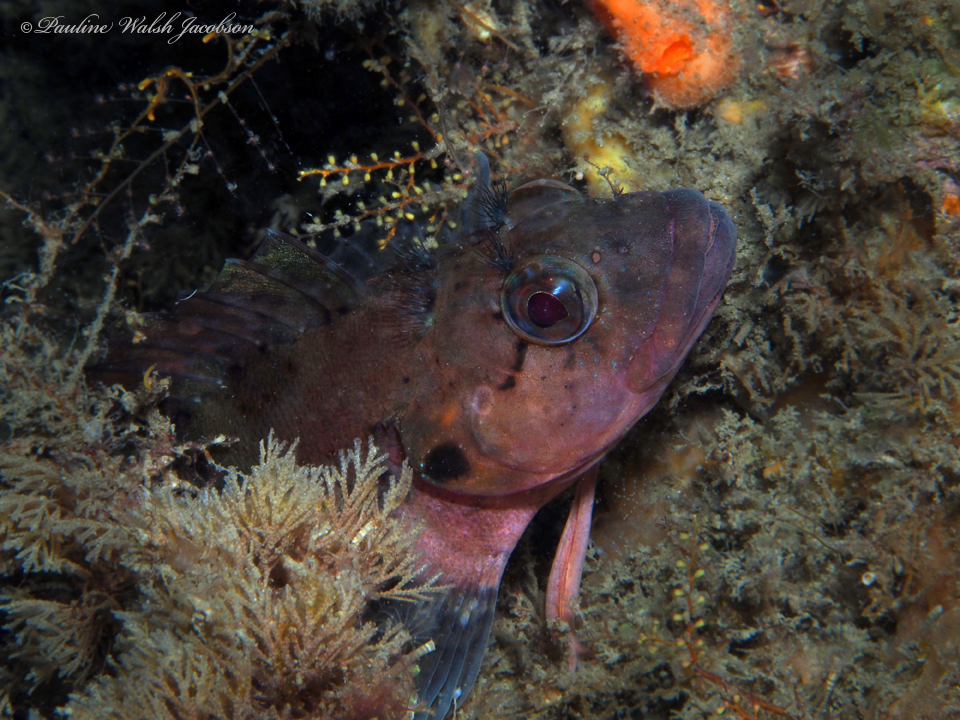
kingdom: Animalia
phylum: Chordata
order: Perciformes
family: Labrisomidae
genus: Labrisomus
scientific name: Labrisomus conditus
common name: Masquerader hairy blenny
